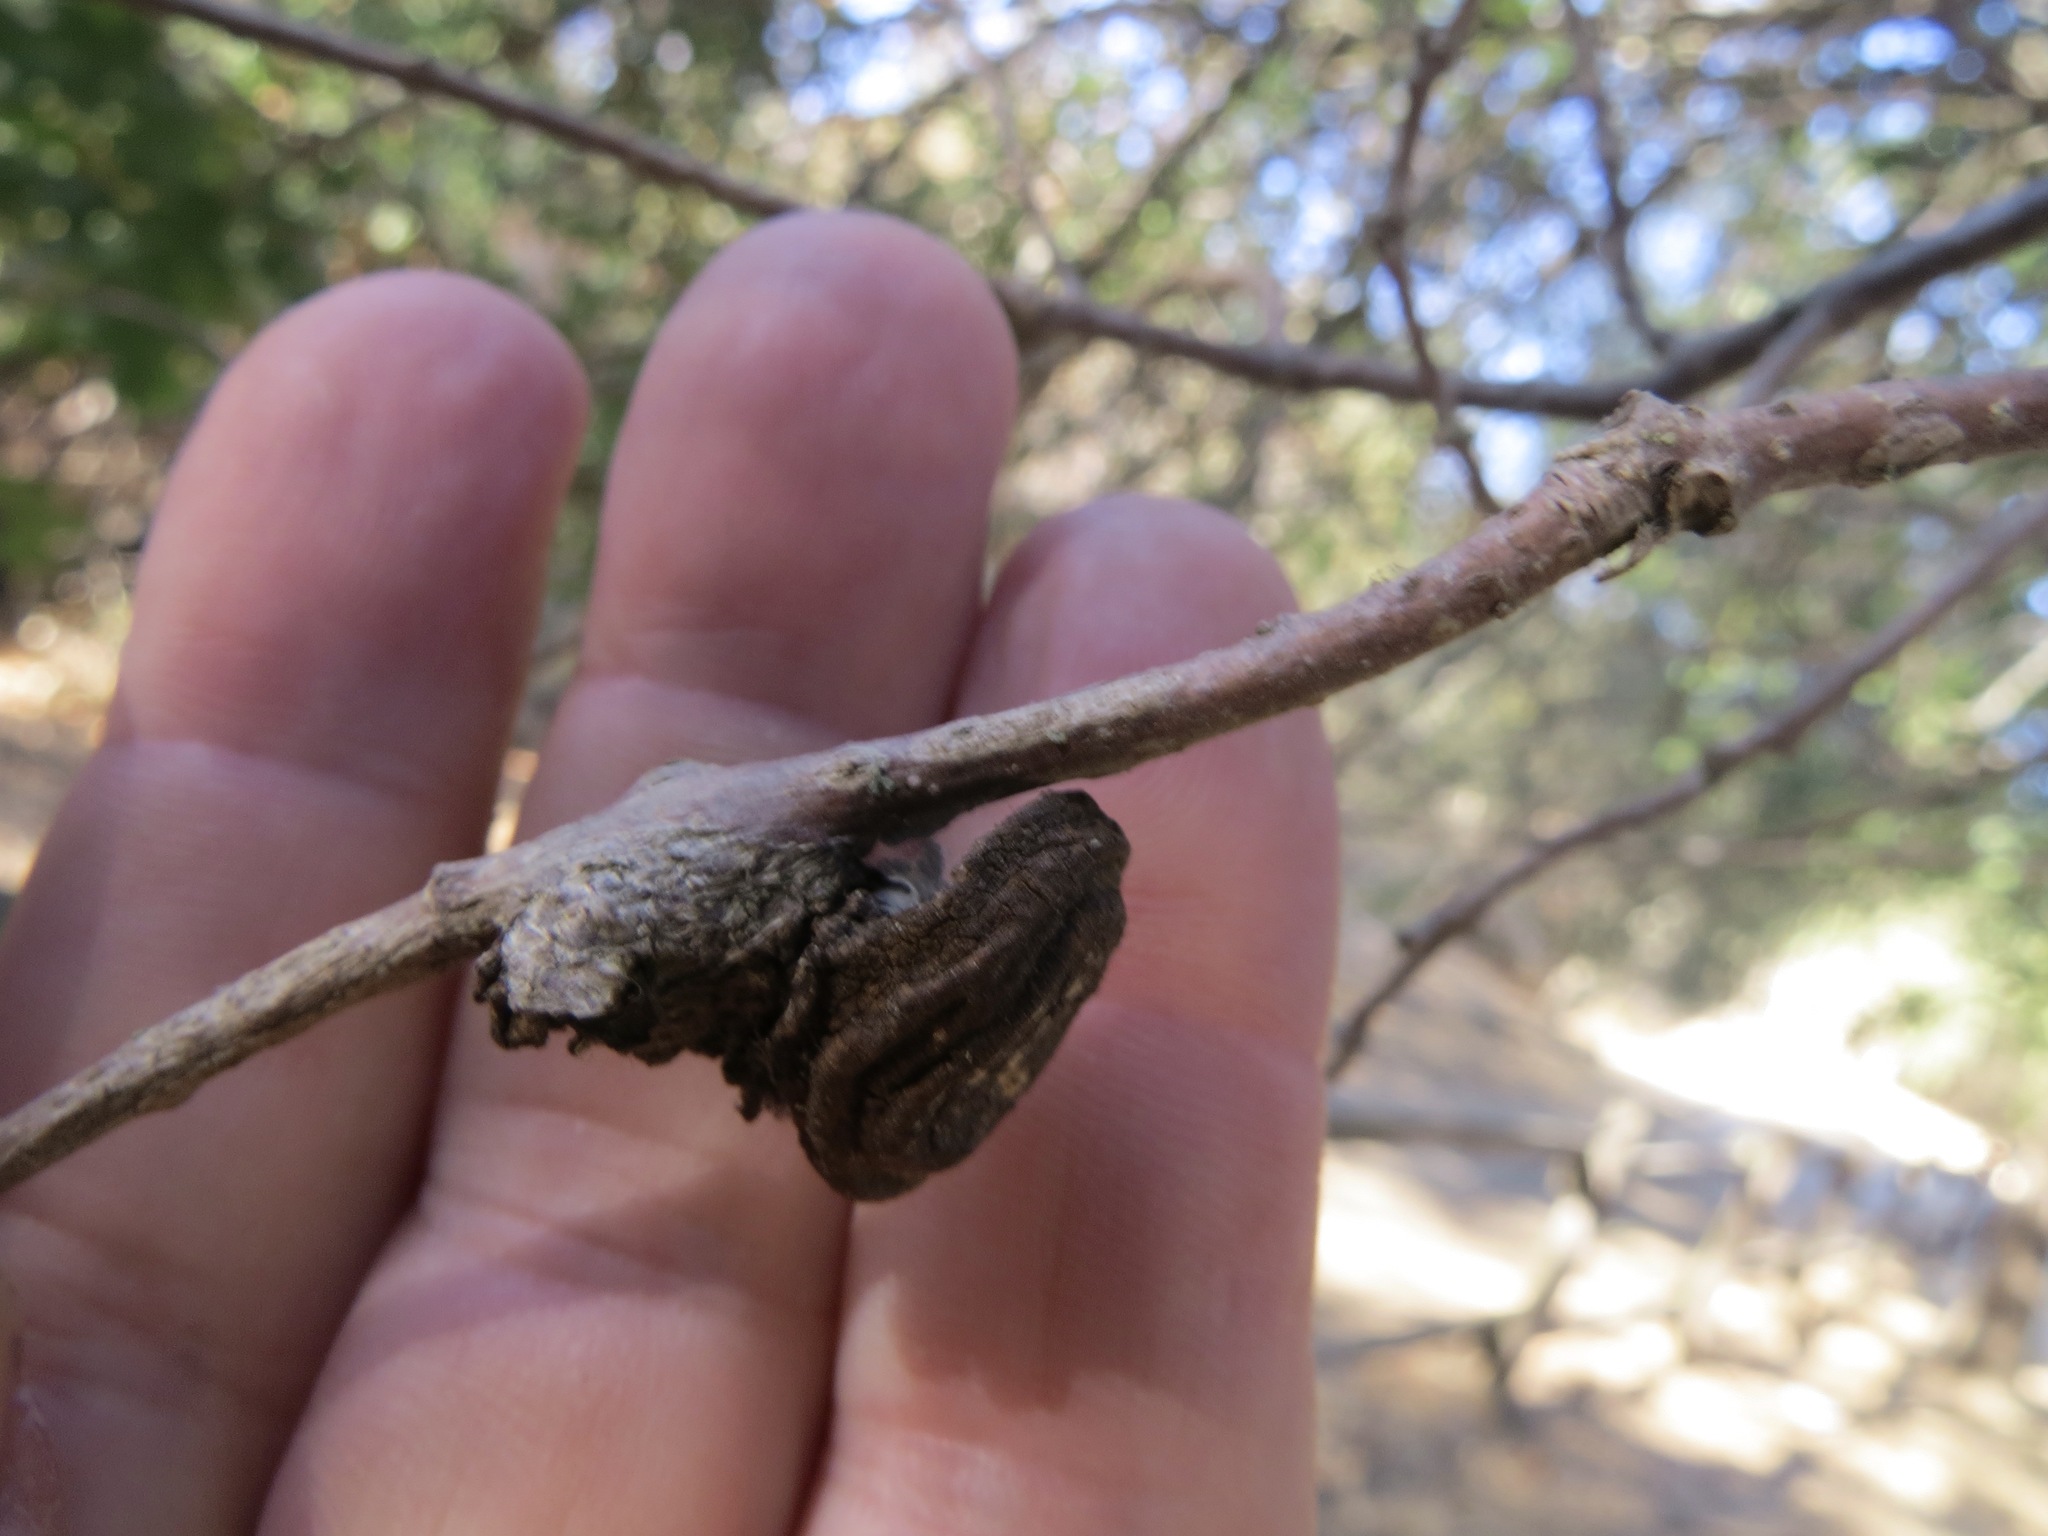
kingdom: Animalia
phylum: Arthropoda
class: Insecta
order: Hymenoptera
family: Cynipidae
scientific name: Cynipidae
